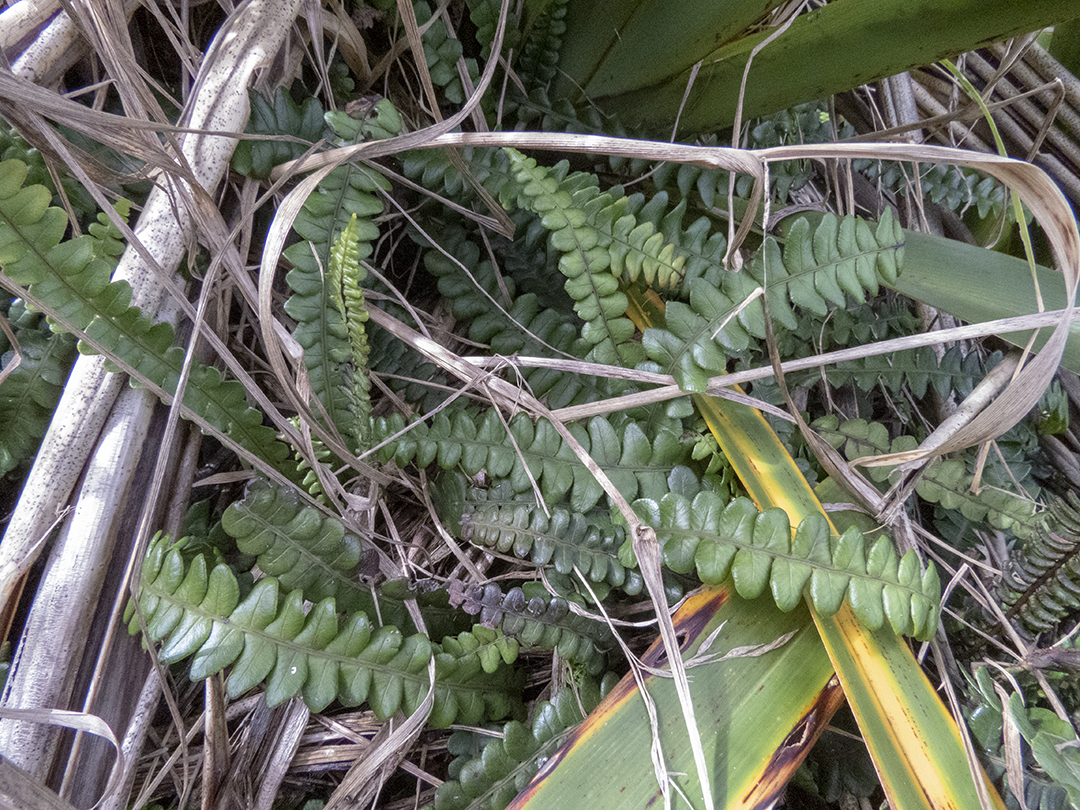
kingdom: Plantae
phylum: Tracheophyta
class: Polypodiopsida
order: Polypodiales
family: Blechnaceae
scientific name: Blechnaceae
